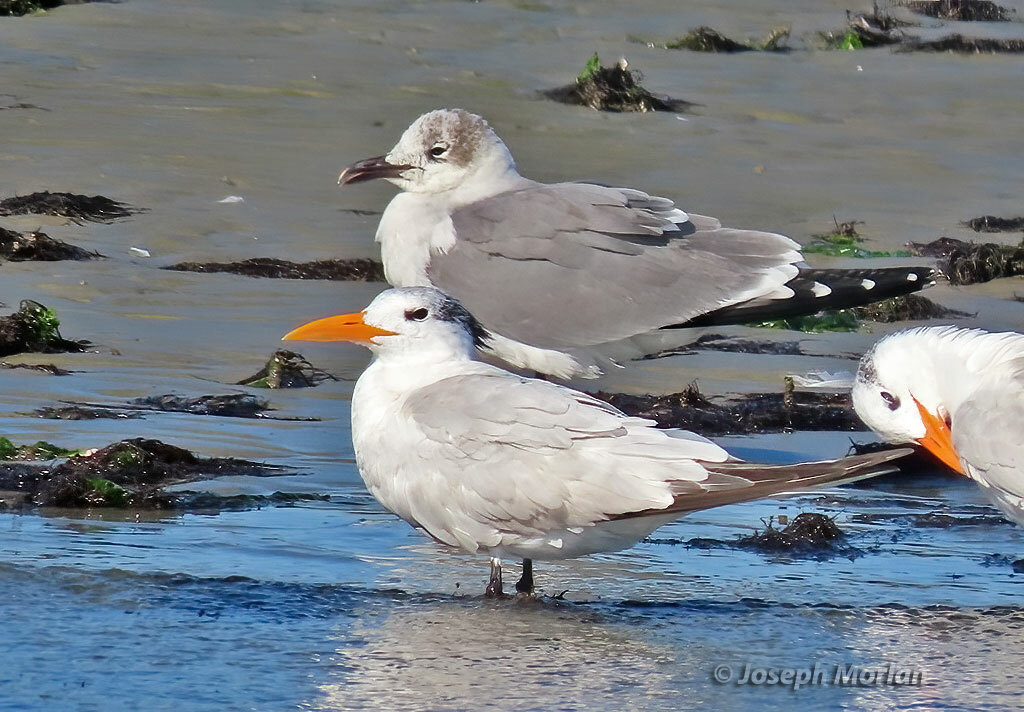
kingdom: Animalia
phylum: Chordata
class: Aves
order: Charadriiformes
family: Laridae
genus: Thalasseus
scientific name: Thalasseus maximus
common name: Royal tern
